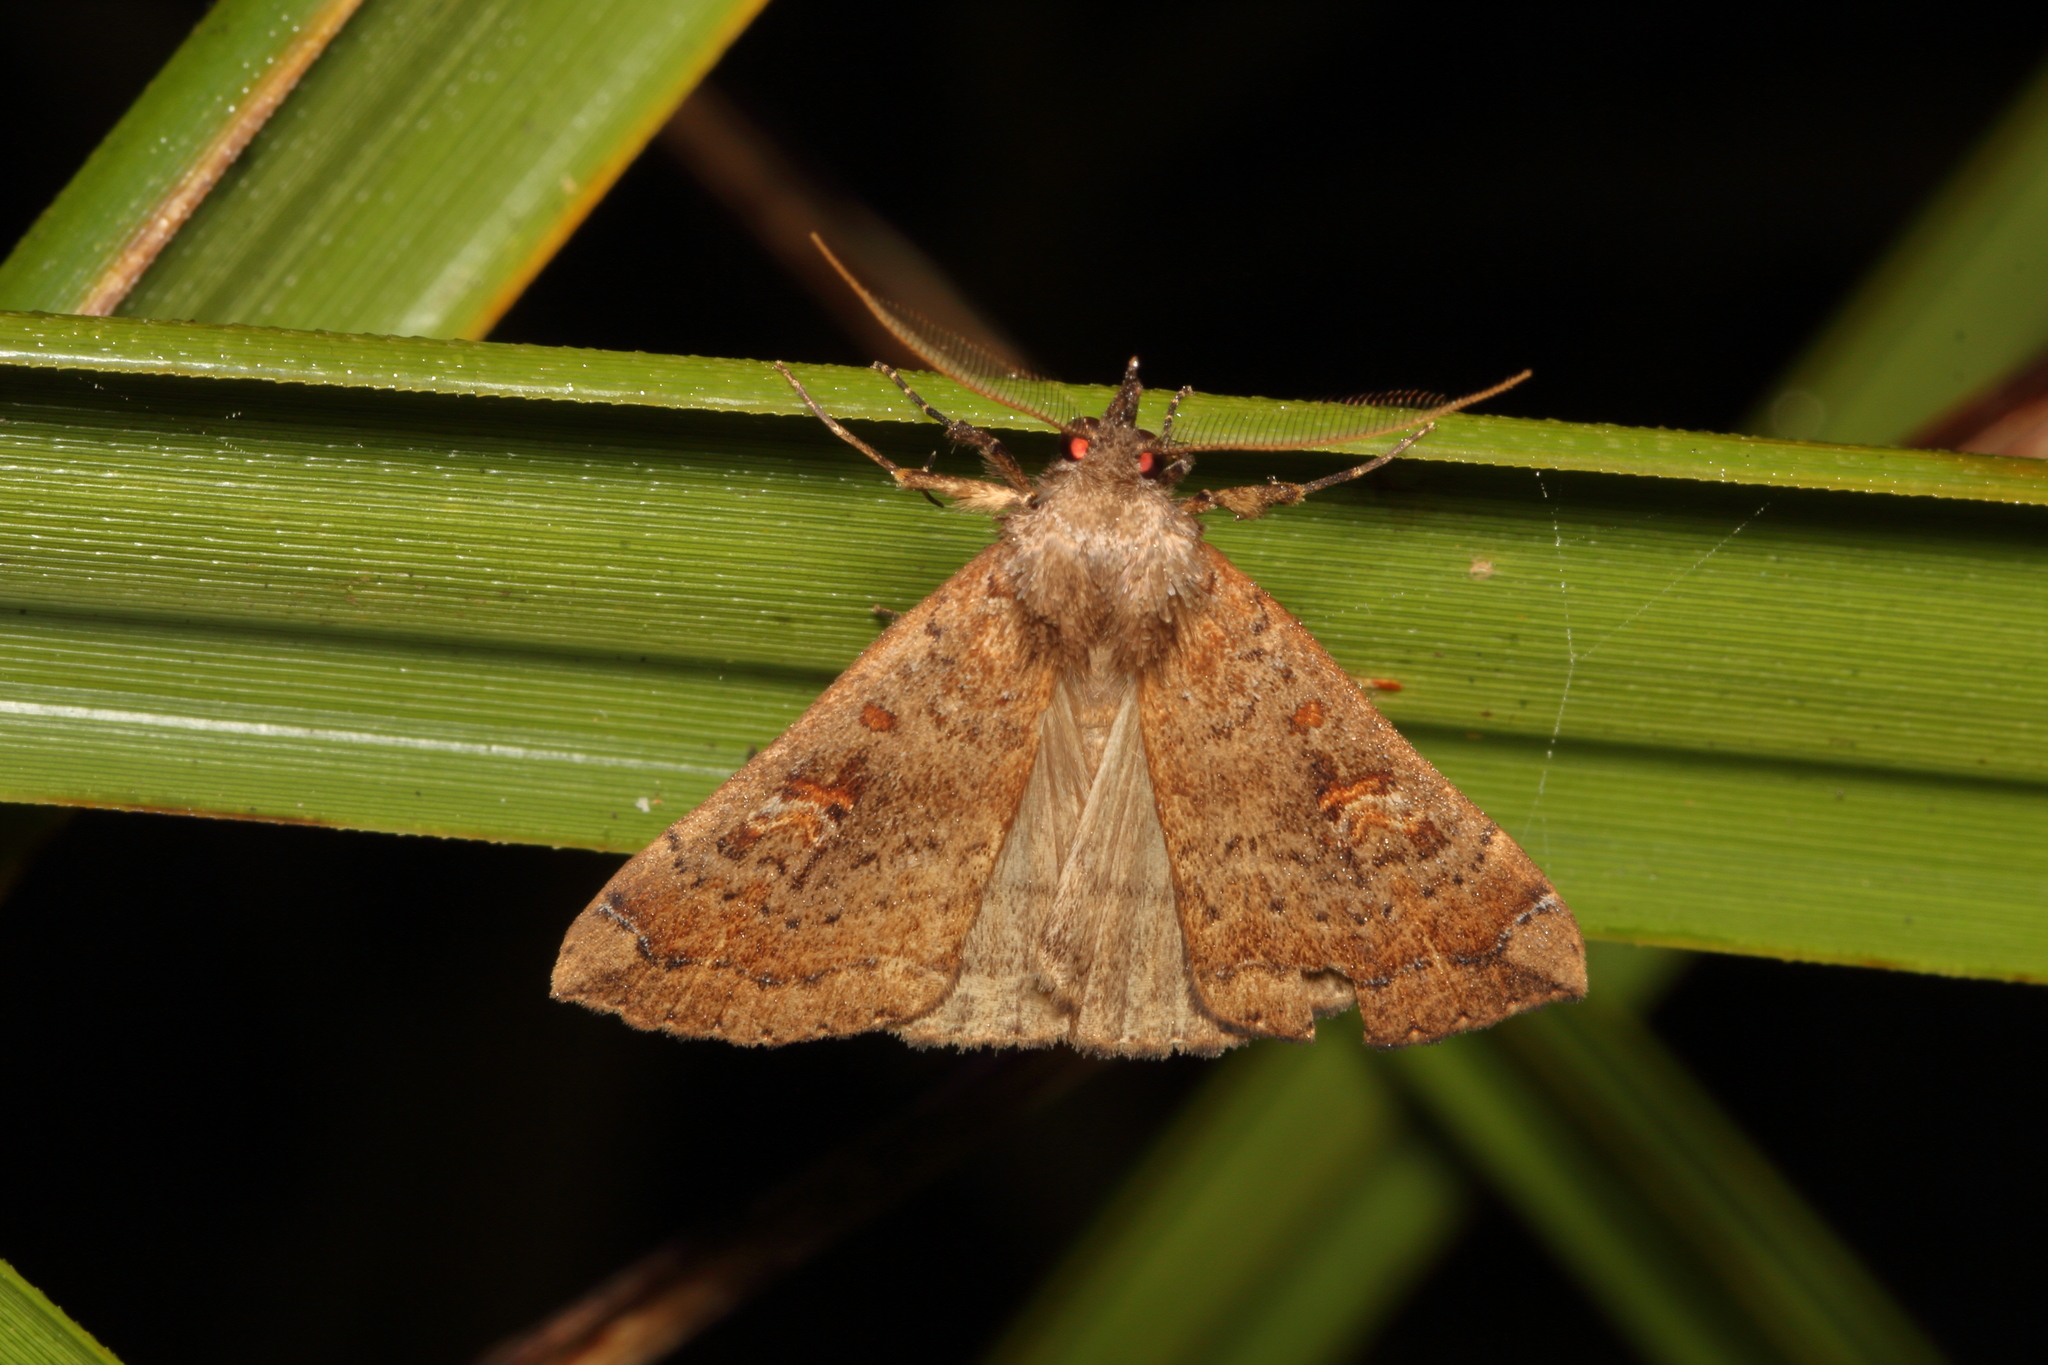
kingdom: Animalia
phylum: Arthropoda
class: Insecta
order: Lepidoptera
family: Erebidae
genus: Rhapsa
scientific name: Rhapsa scotosialis
